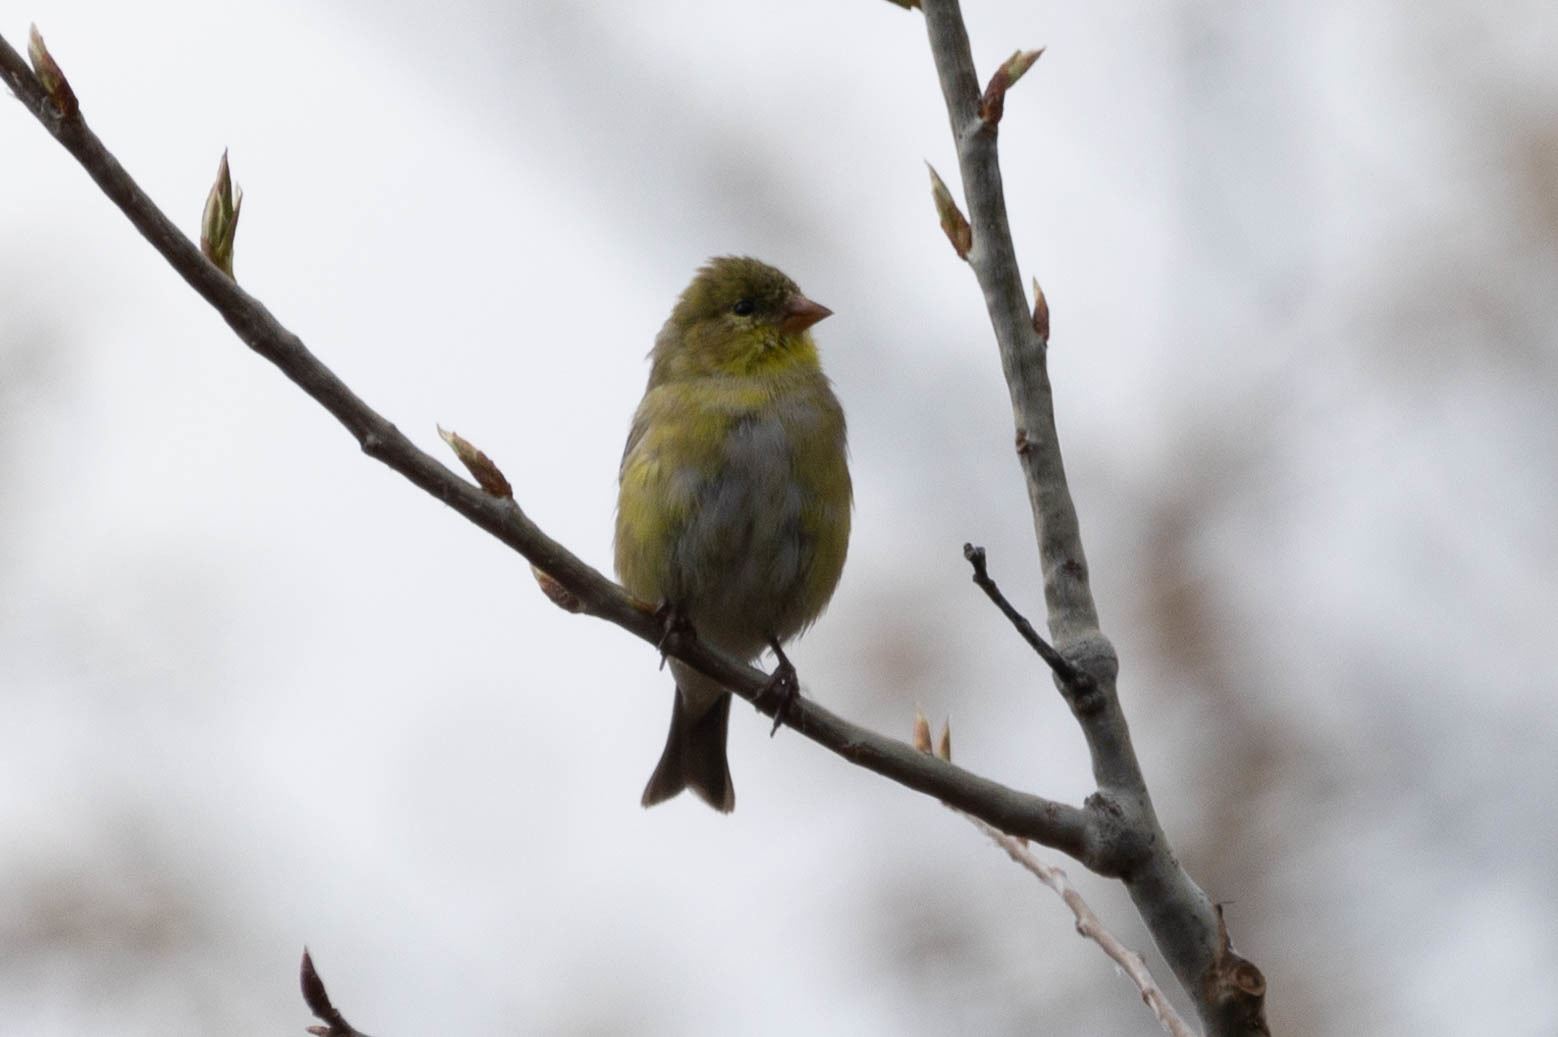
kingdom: Animalia
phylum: Chordata
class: Aves
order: Passeriformes
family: Fringillidae
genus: Spinus
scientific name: Spinus tristis
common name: American goldfinch
